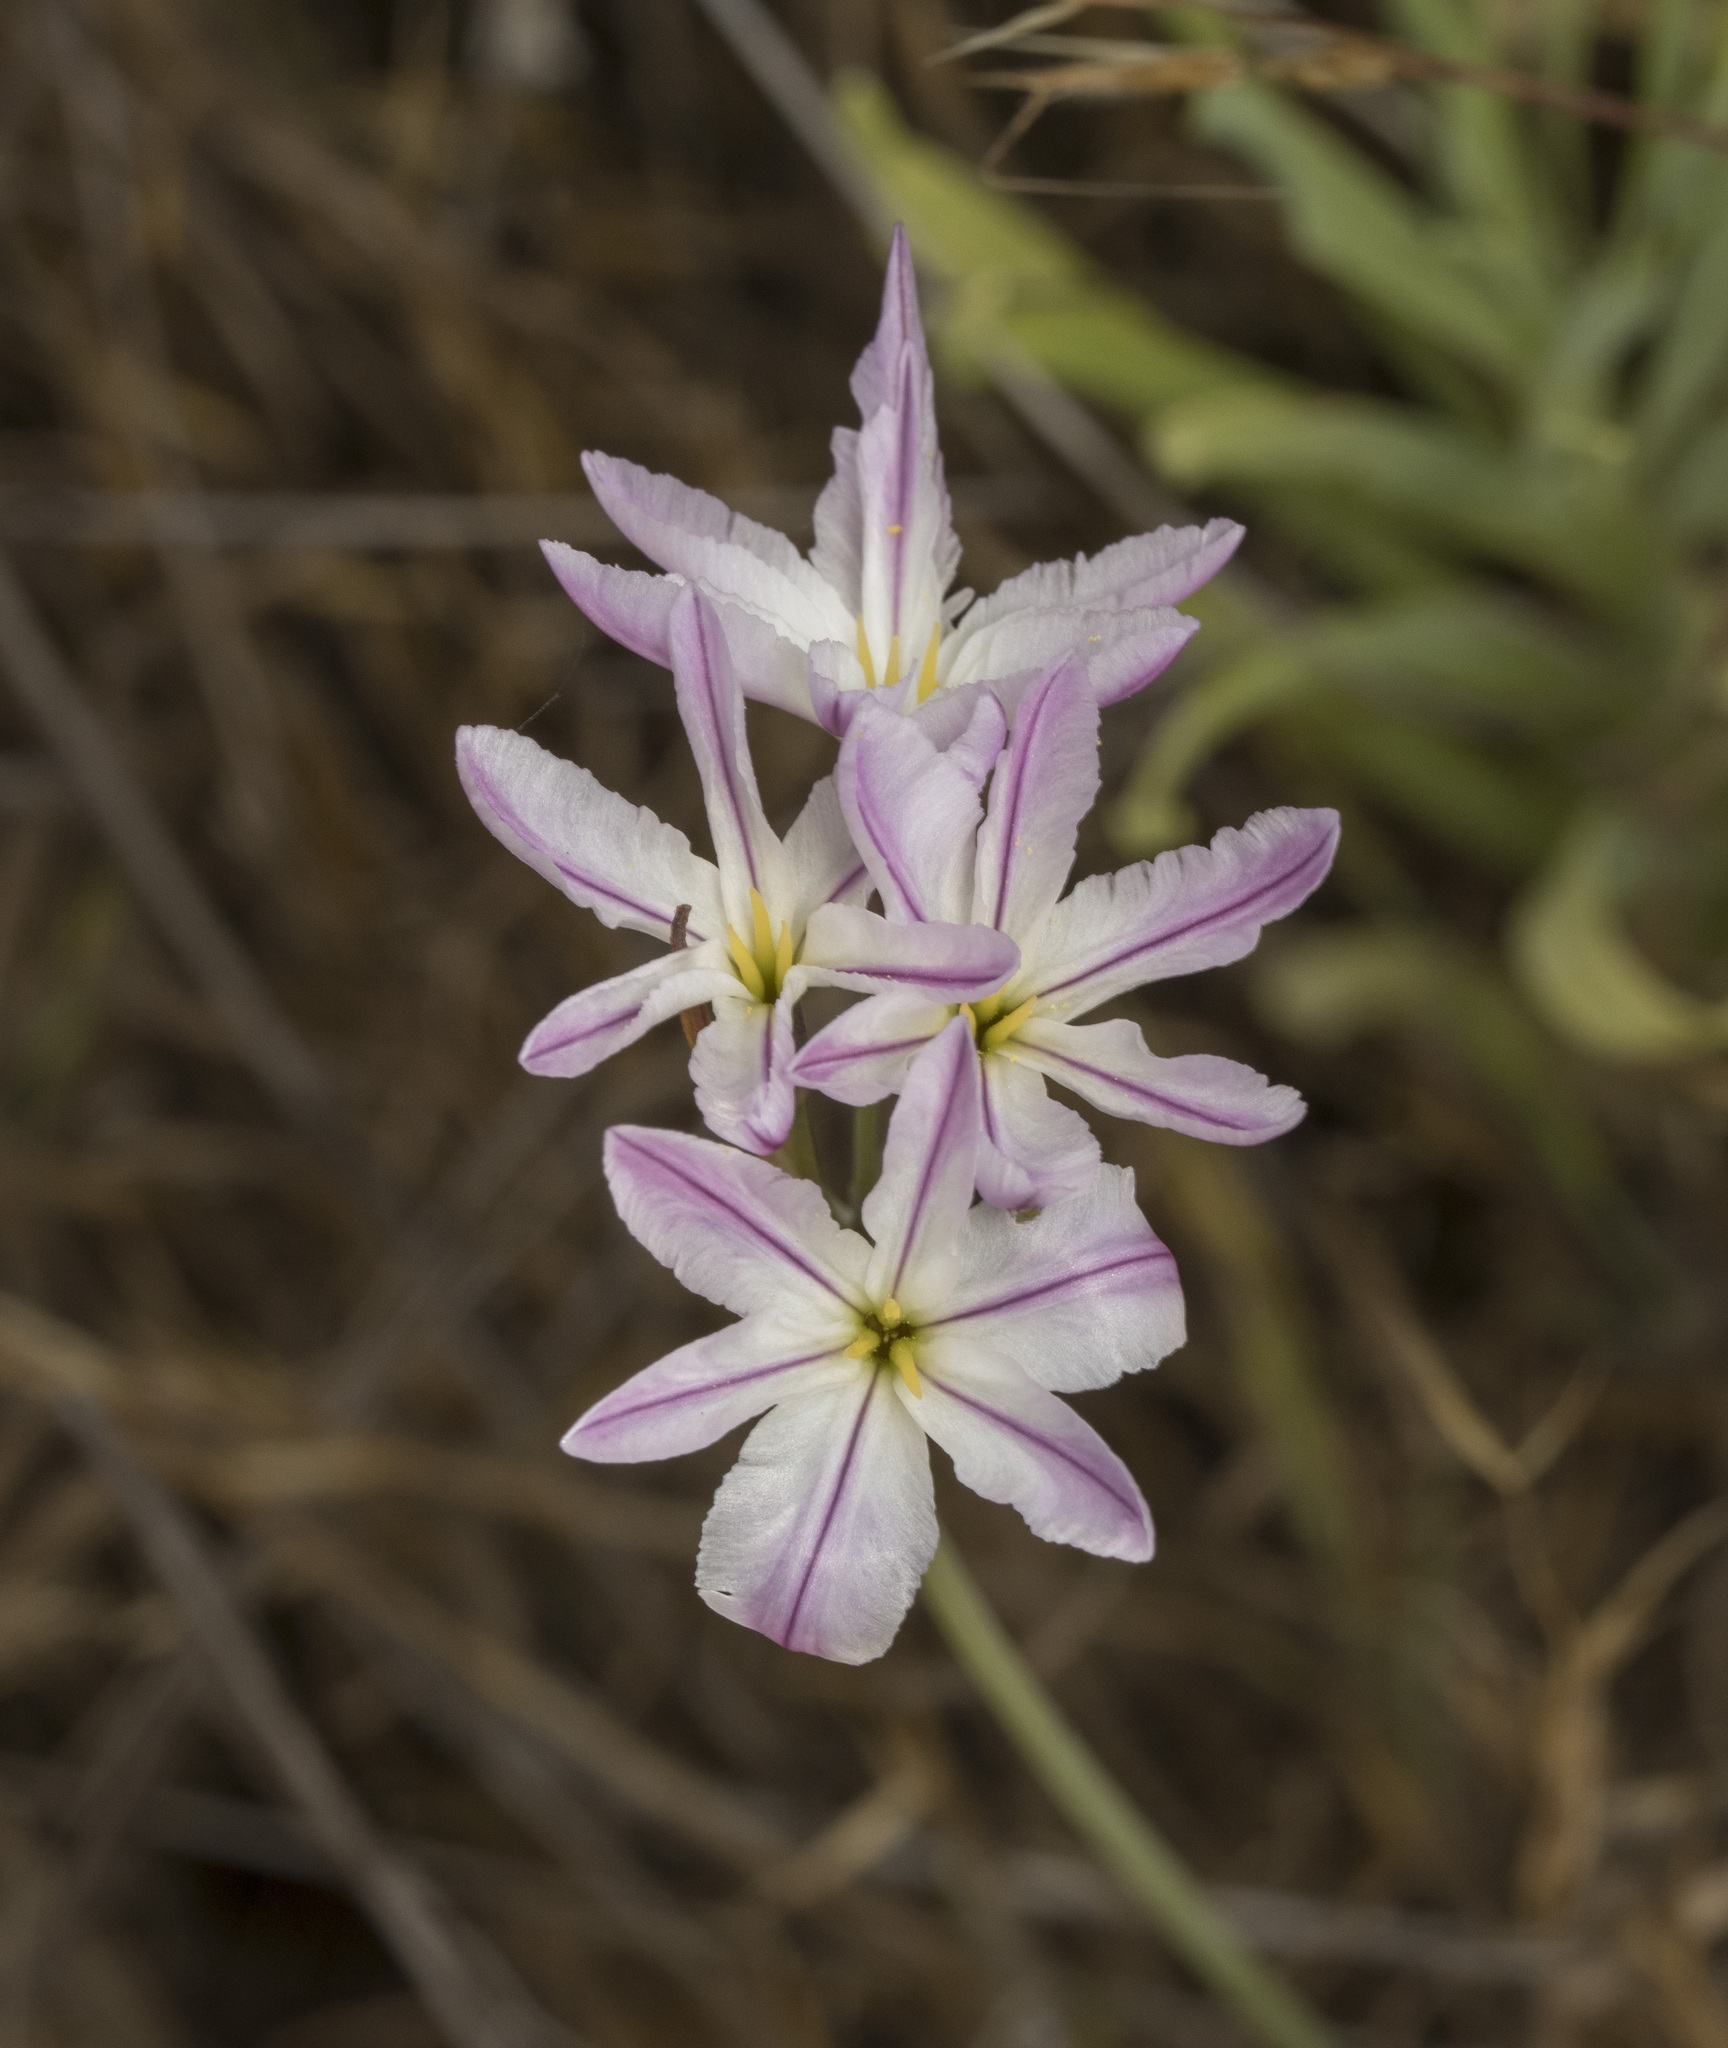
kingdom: Plantae
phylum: Tracheophyta
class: Liliopsida
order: Asparagales
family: Amaryllidaceae
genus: Leucocoryne
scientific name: Leucocoryne ixioides
